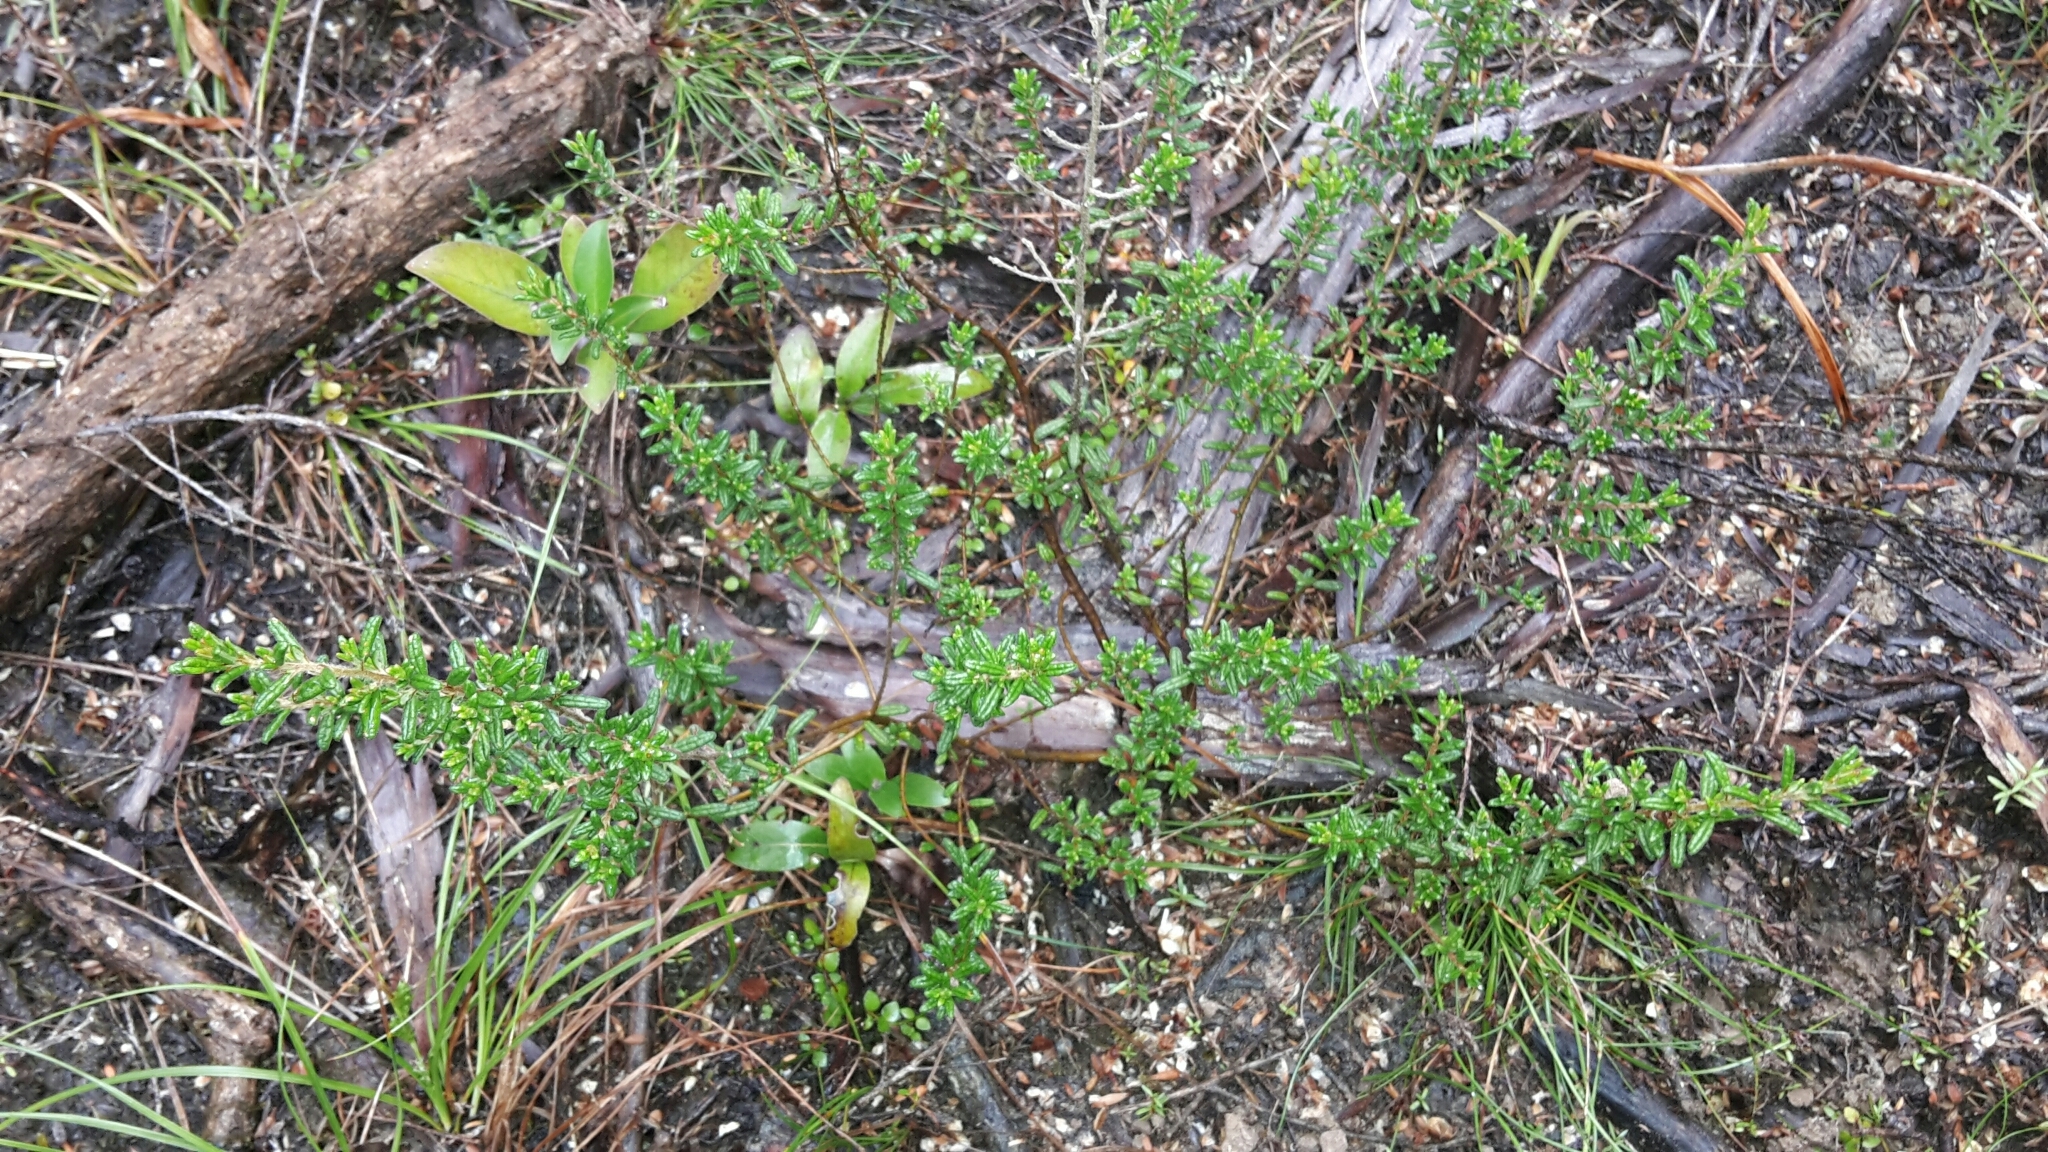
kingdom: Plantae
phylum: Tracheophyta
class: Magnoliopsida
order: Rosales
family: Rhamnaceae
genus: Pomaderris
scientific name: Pomaderris amoena
